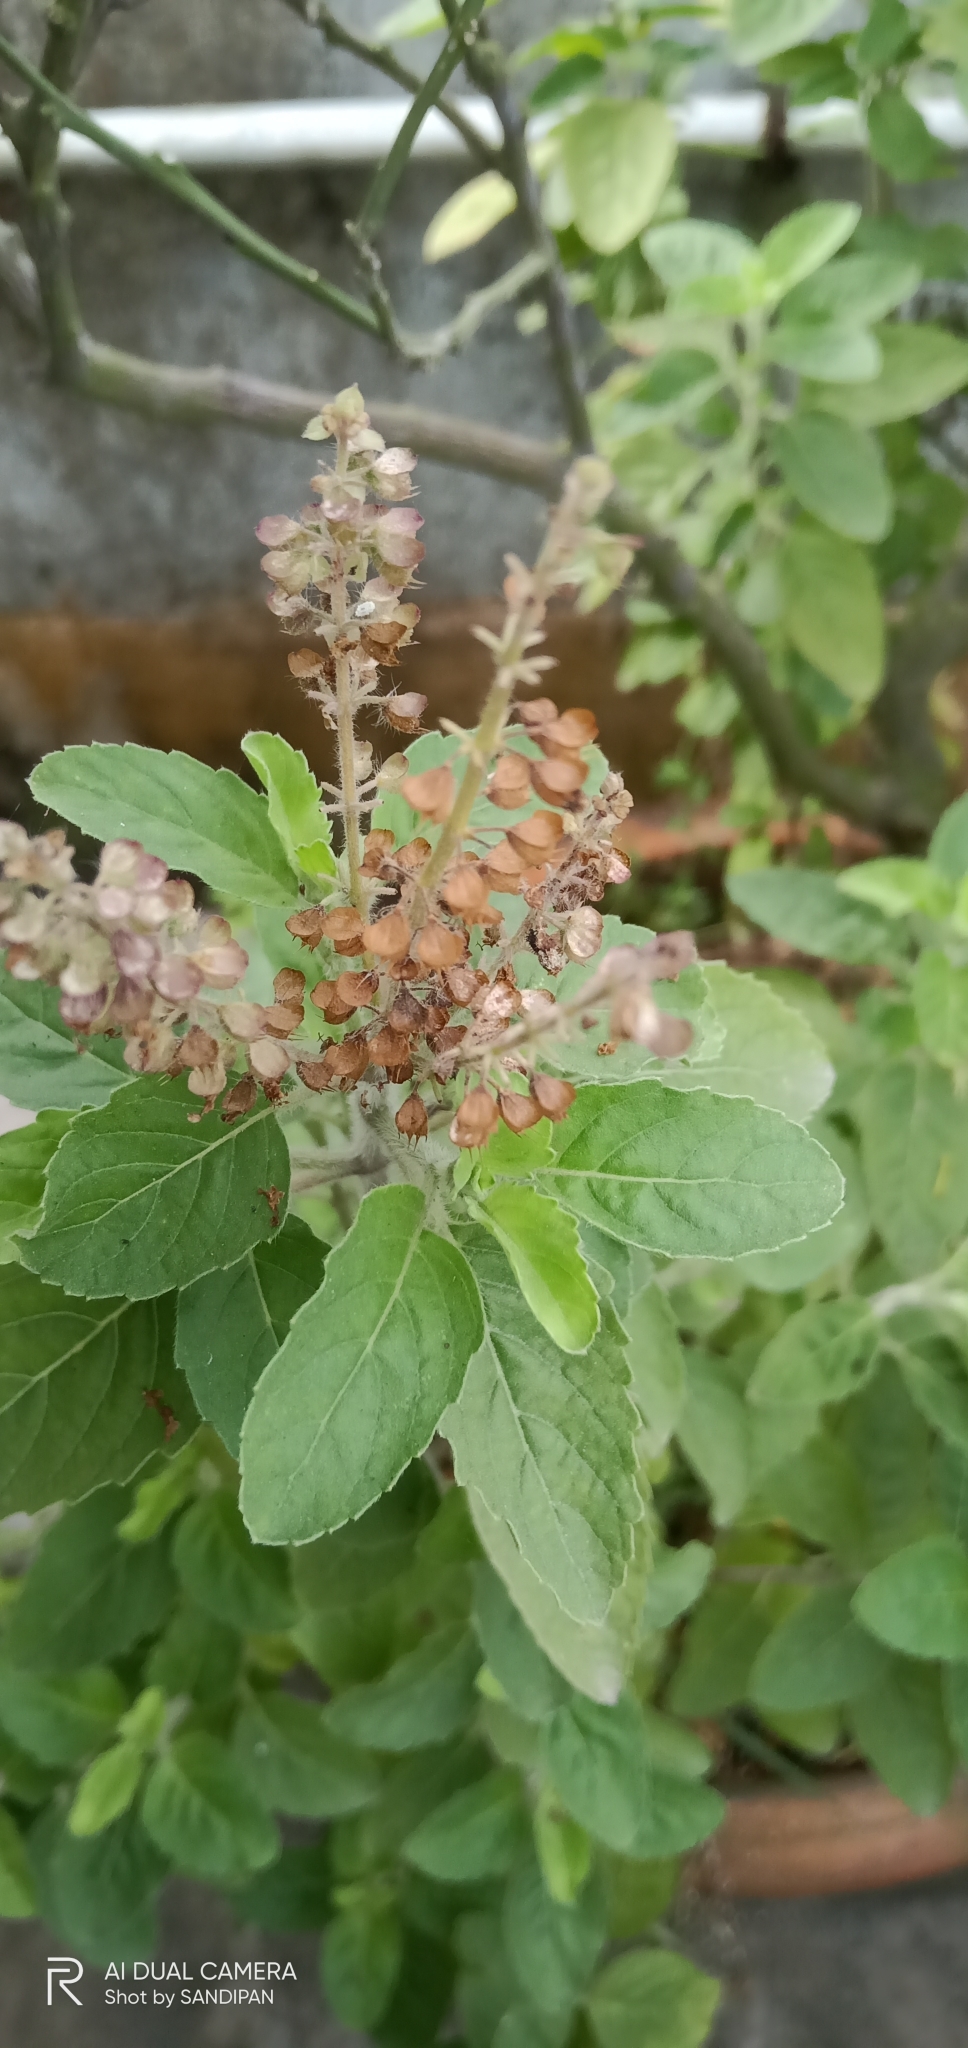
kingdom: Plantae
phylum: Tracheophyta
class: Magnoliopsida
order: Lamiales
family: Lamiaceae
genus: Ocimum
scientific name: Ocimum tenuiflorum
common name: Sacred basil
